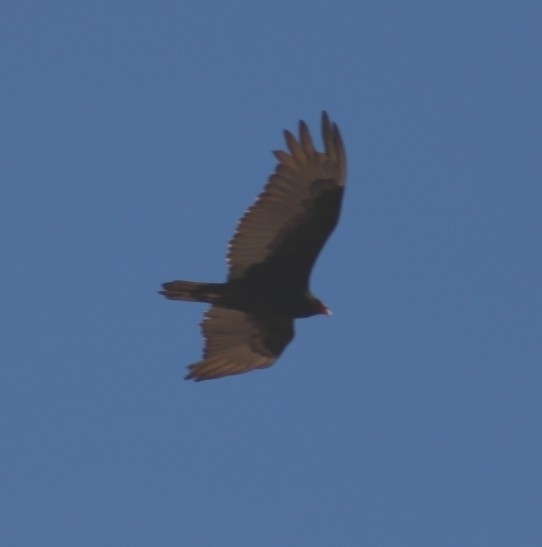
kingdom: Animalia
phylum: Chordata
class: Aves
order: Accipitriformes
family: Cathartidae
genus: Cathartes
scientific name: Cathartes aura
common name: Turkey vulture
